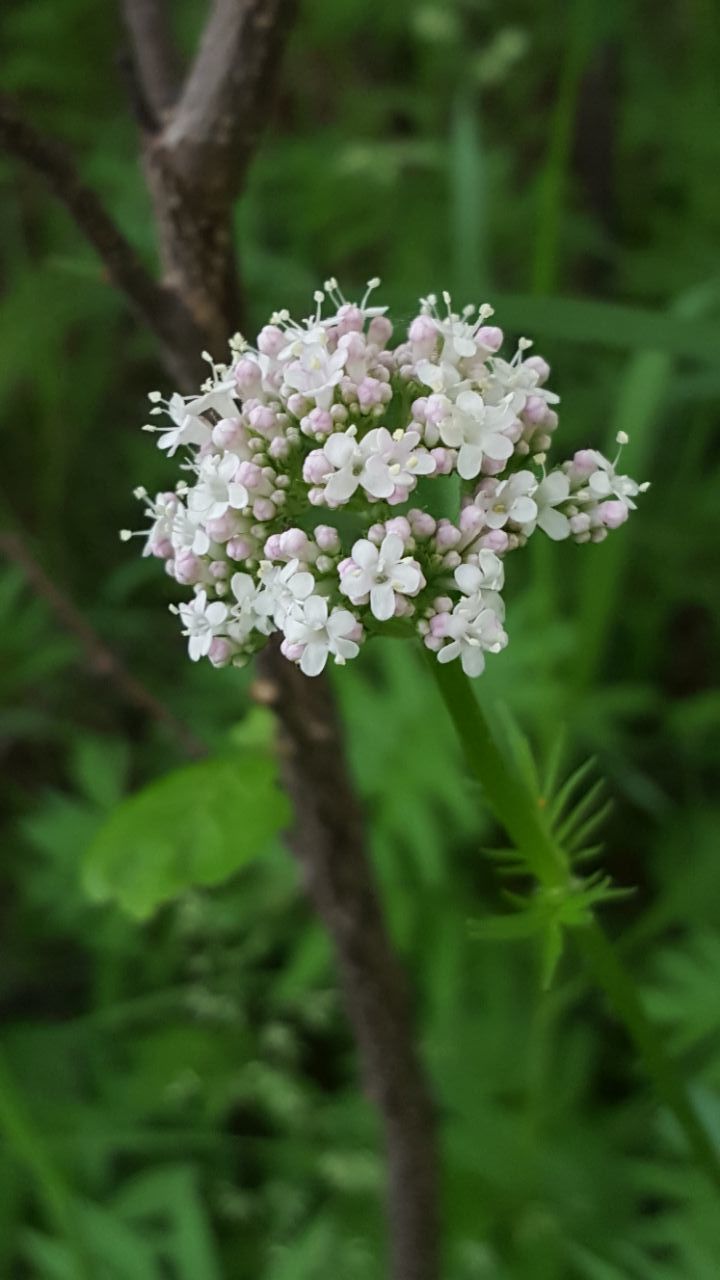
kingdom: Plantae
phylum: Tracheophyta
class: Magnoliopsida
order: Gentianales
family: Rubiaceae
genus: Galium
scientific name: Galium boreale
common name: Northern bedstraw
